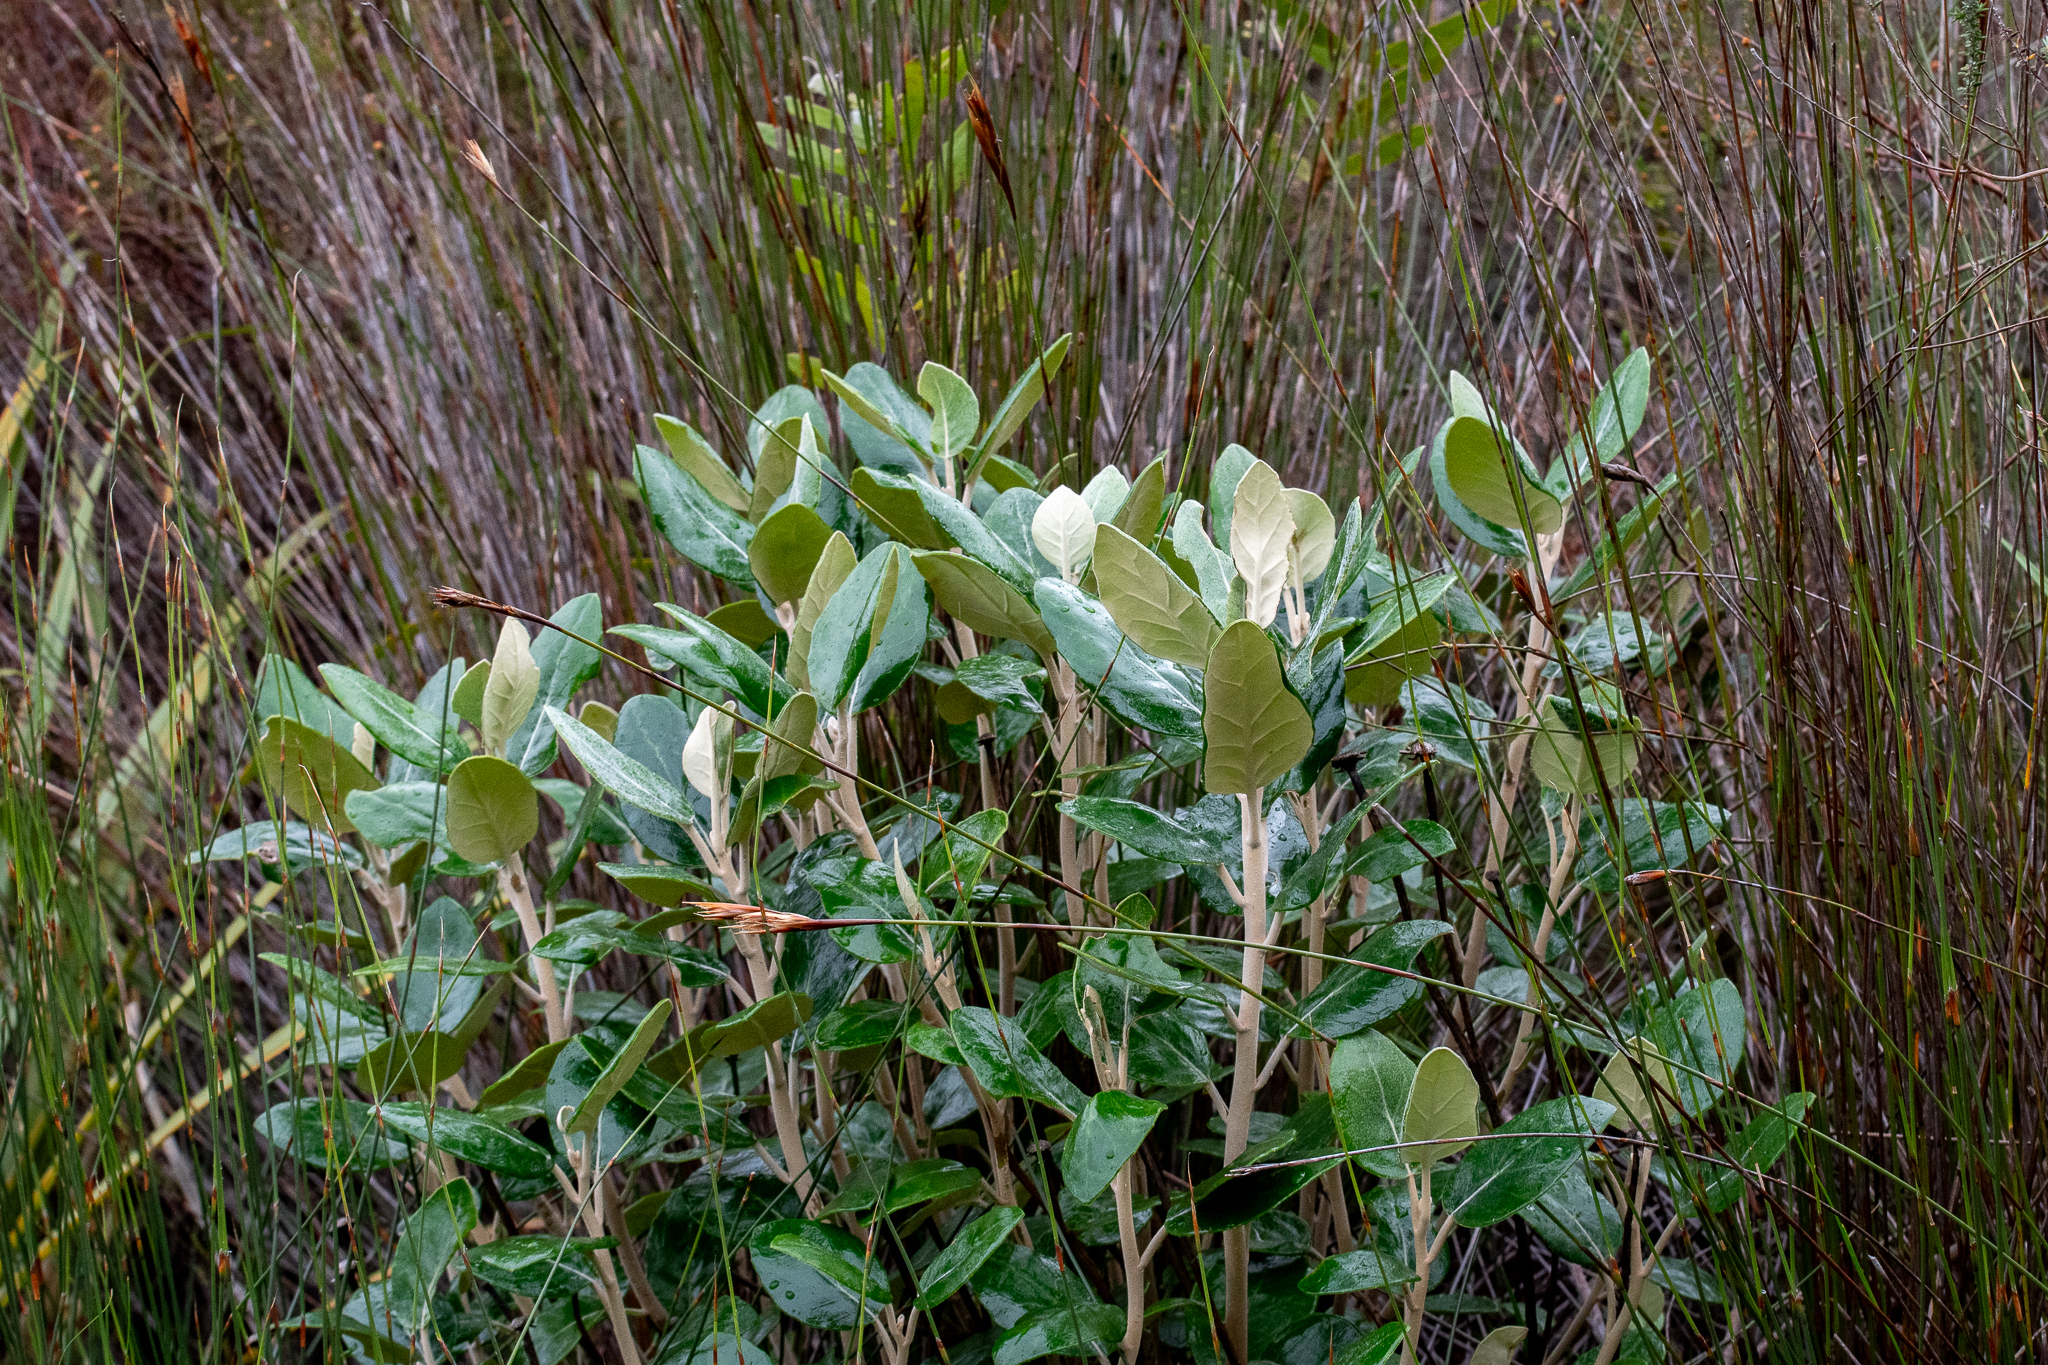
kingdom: Plantae
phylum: Tracheophyta
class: Magnoliopsida
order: Asterales
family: Asteraceae
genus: Capelio
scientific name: Capelio tabularis
